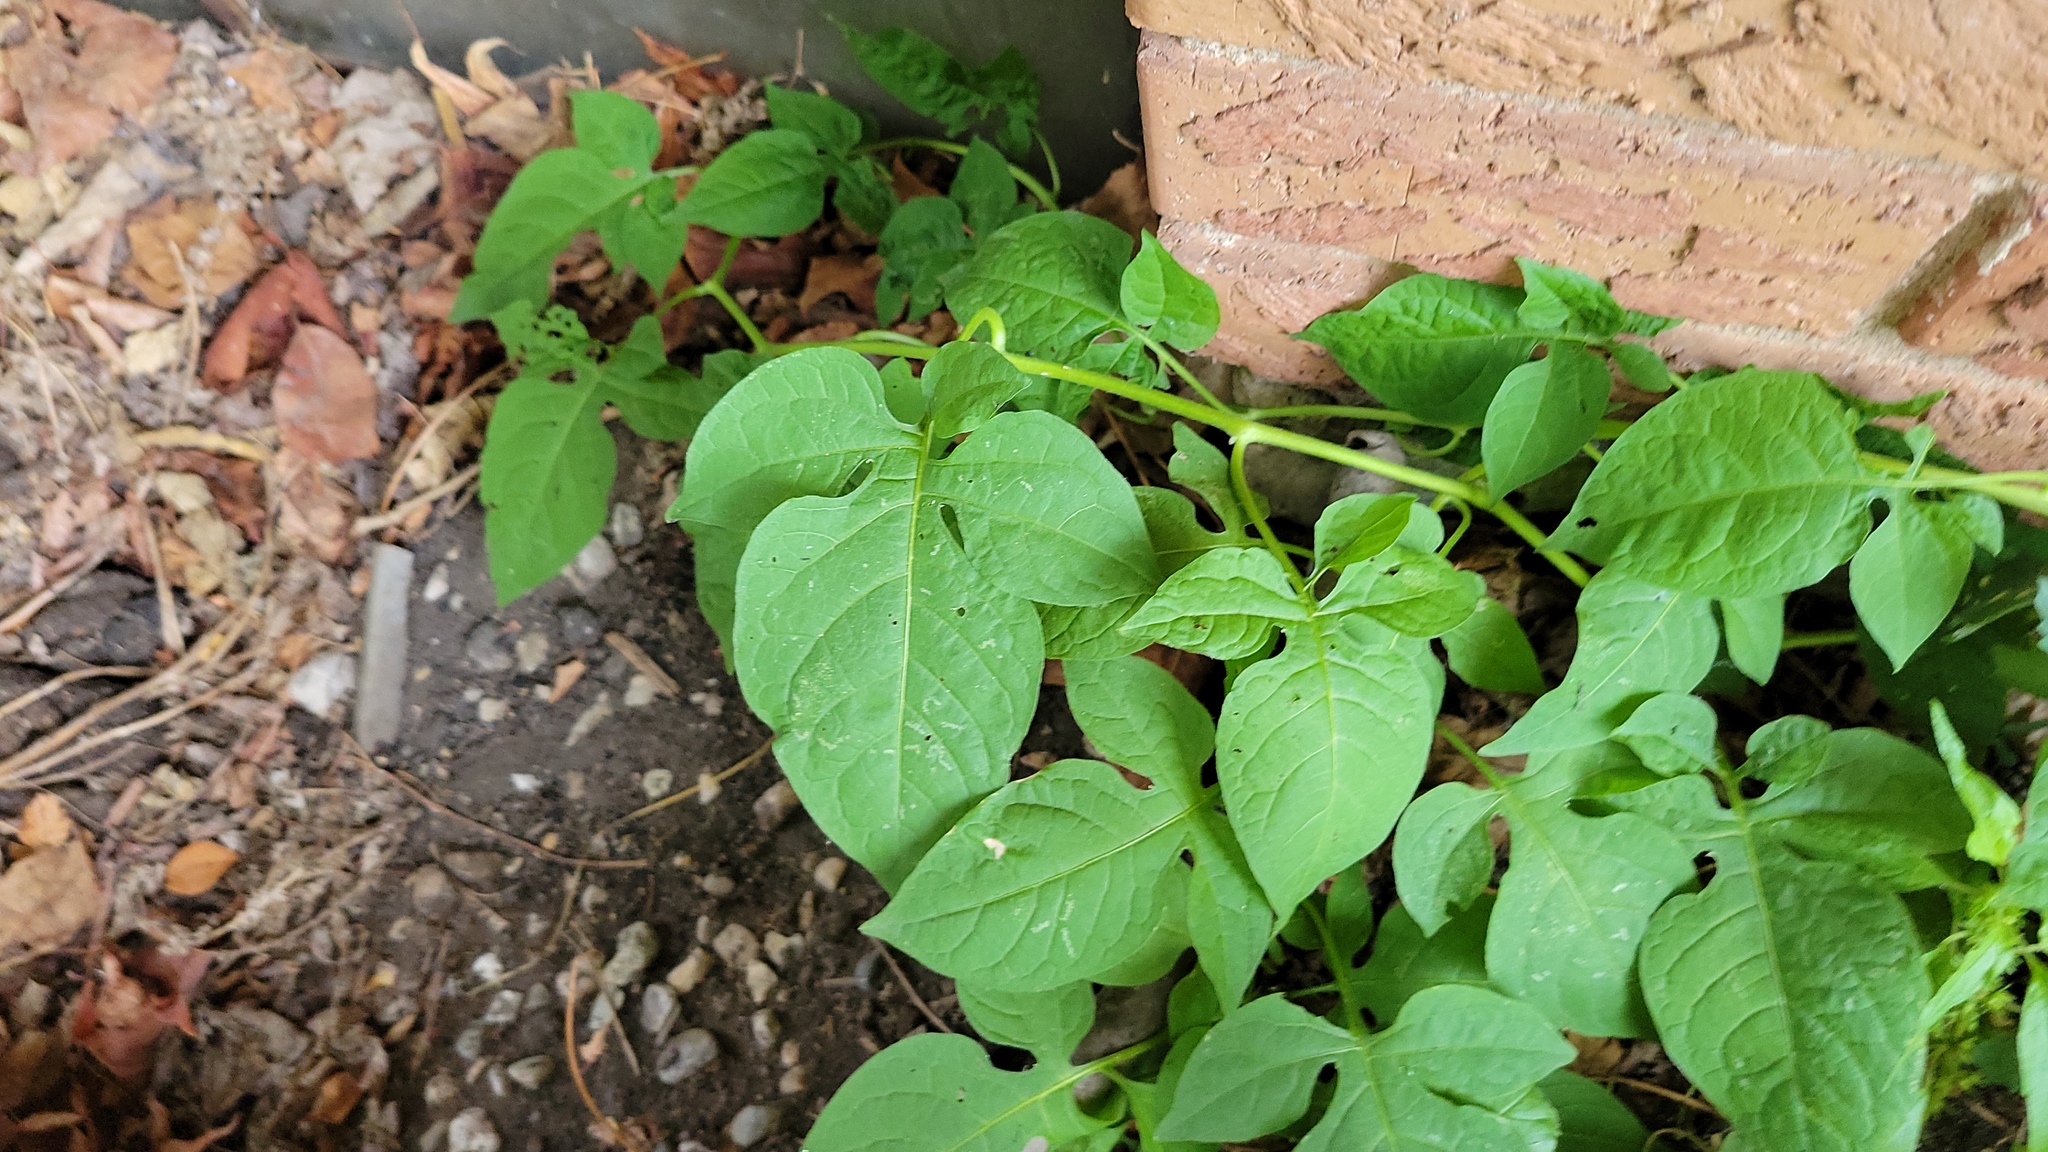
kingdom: Plantae
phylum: Tracheophyta
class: Magnoliopsida
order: Solanales
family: Solanaceae
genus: Solanum
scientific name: Solanum dulcamara
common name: Climbing nightshade
